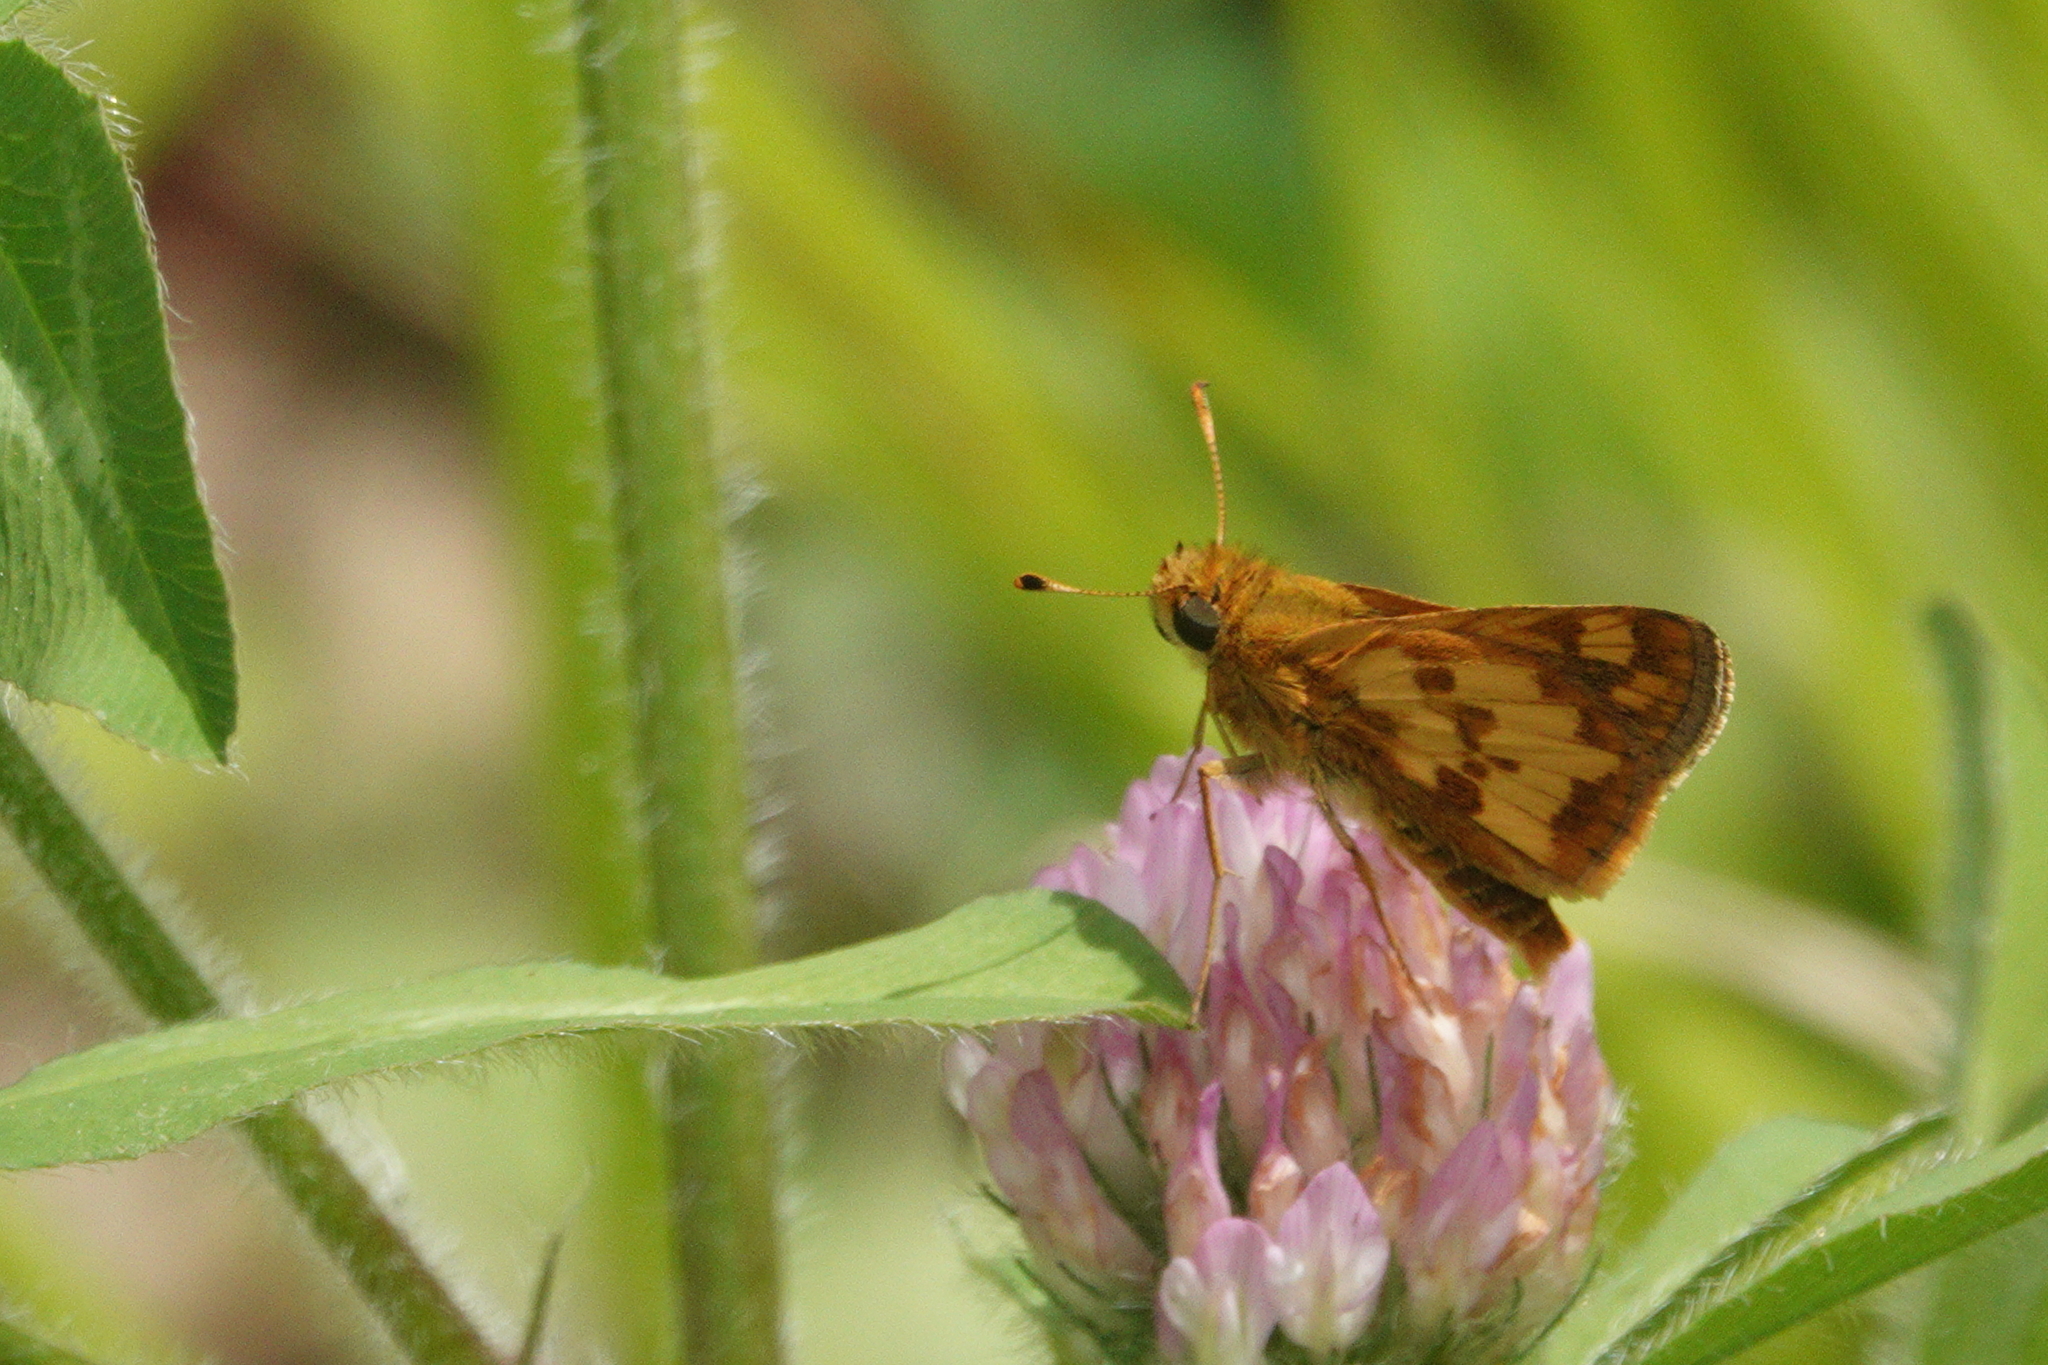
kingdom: Animalia
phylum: Arthropoda
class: Insecta
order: Lepidoptera
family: Hesperiidae
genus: Polites
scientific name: Polites coras
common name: Peck's skipper
